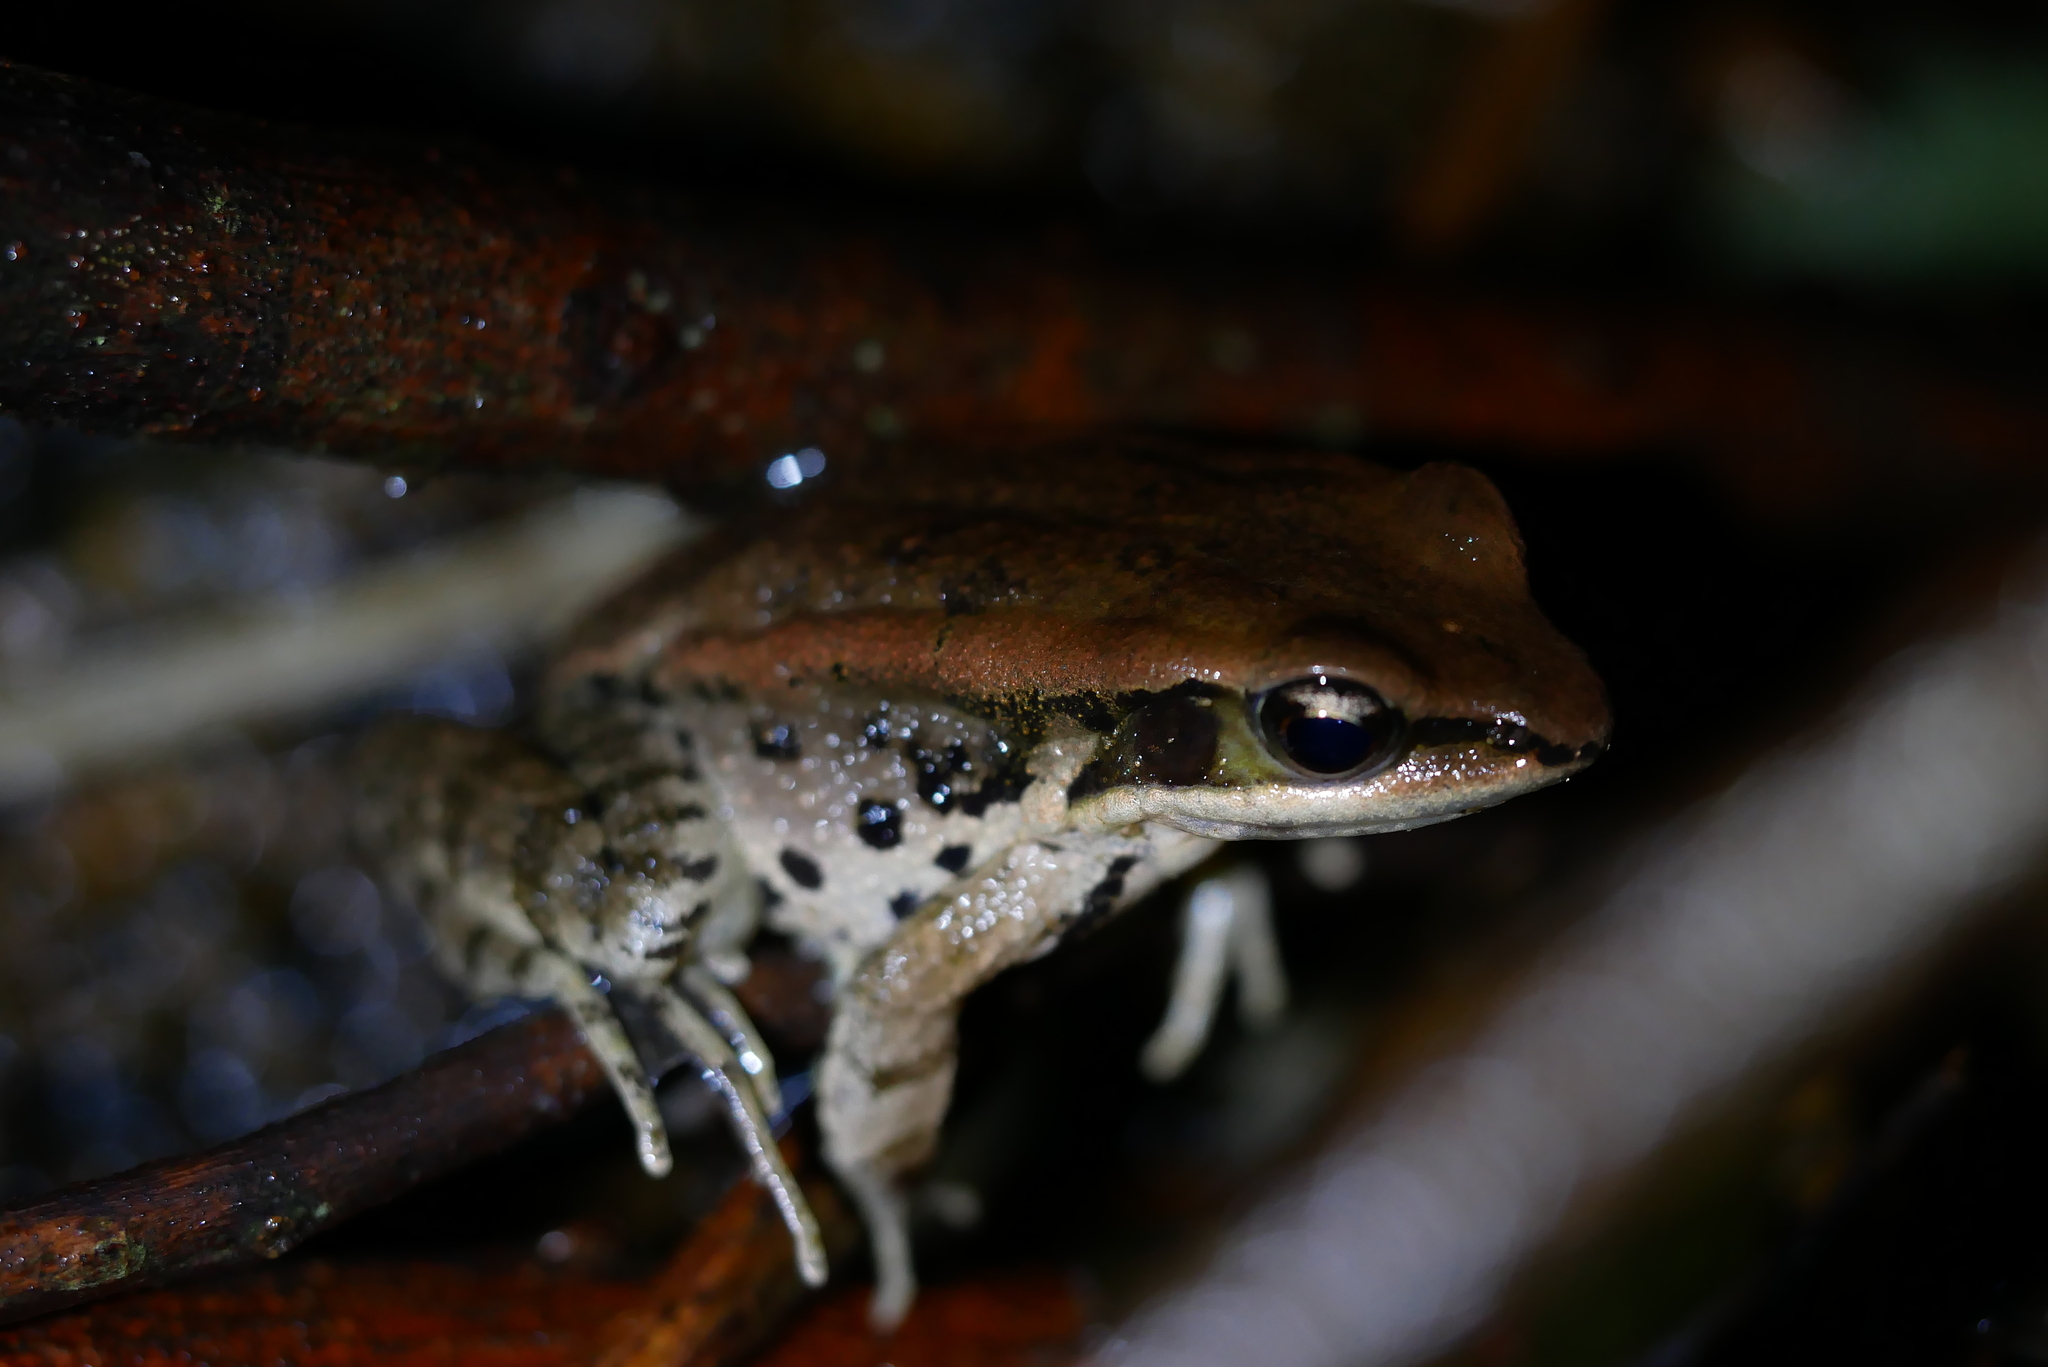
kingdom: Animalia
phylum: Chordata
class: Amphibia
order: Anura
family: Ranidae
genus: Hylarana
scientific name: Hylarana latouchii
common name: Broad-folded frog
